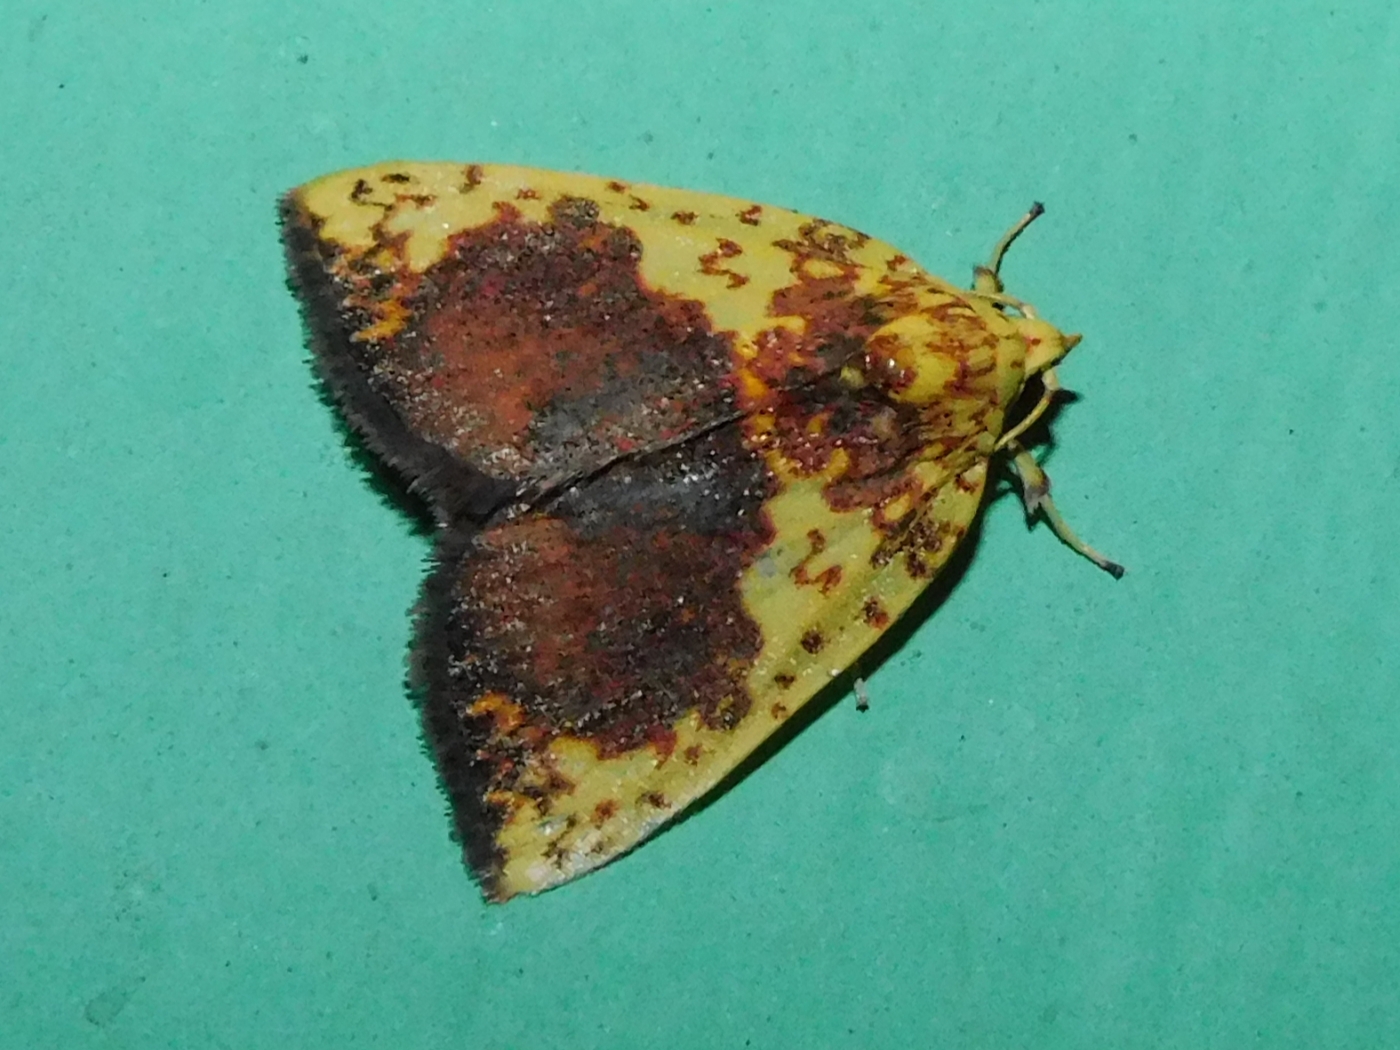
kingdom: Animalia
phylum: Arthropoda
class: Insecta
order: Lepidoptera
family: Nolidae
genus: Siglophora
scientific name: Siglophora sanguinolenta
